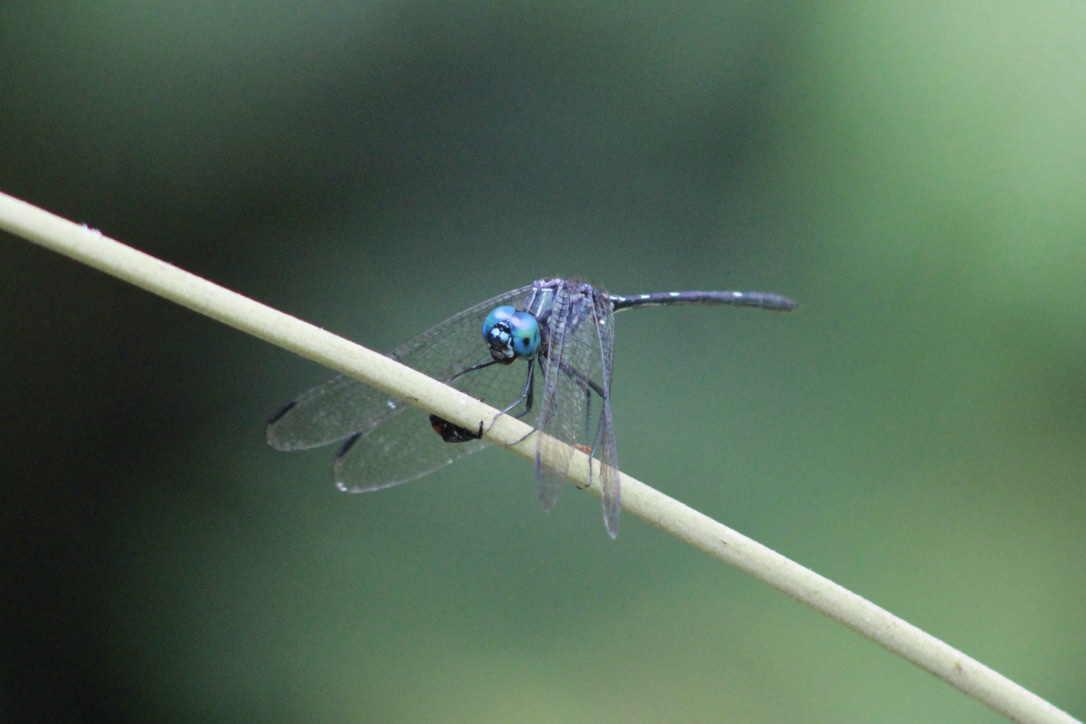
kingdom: Animalia
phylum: Arthropoda
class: Insecta
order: Odonata
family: Libellulidae
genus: Dythemis
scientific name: Dythemis nigra
